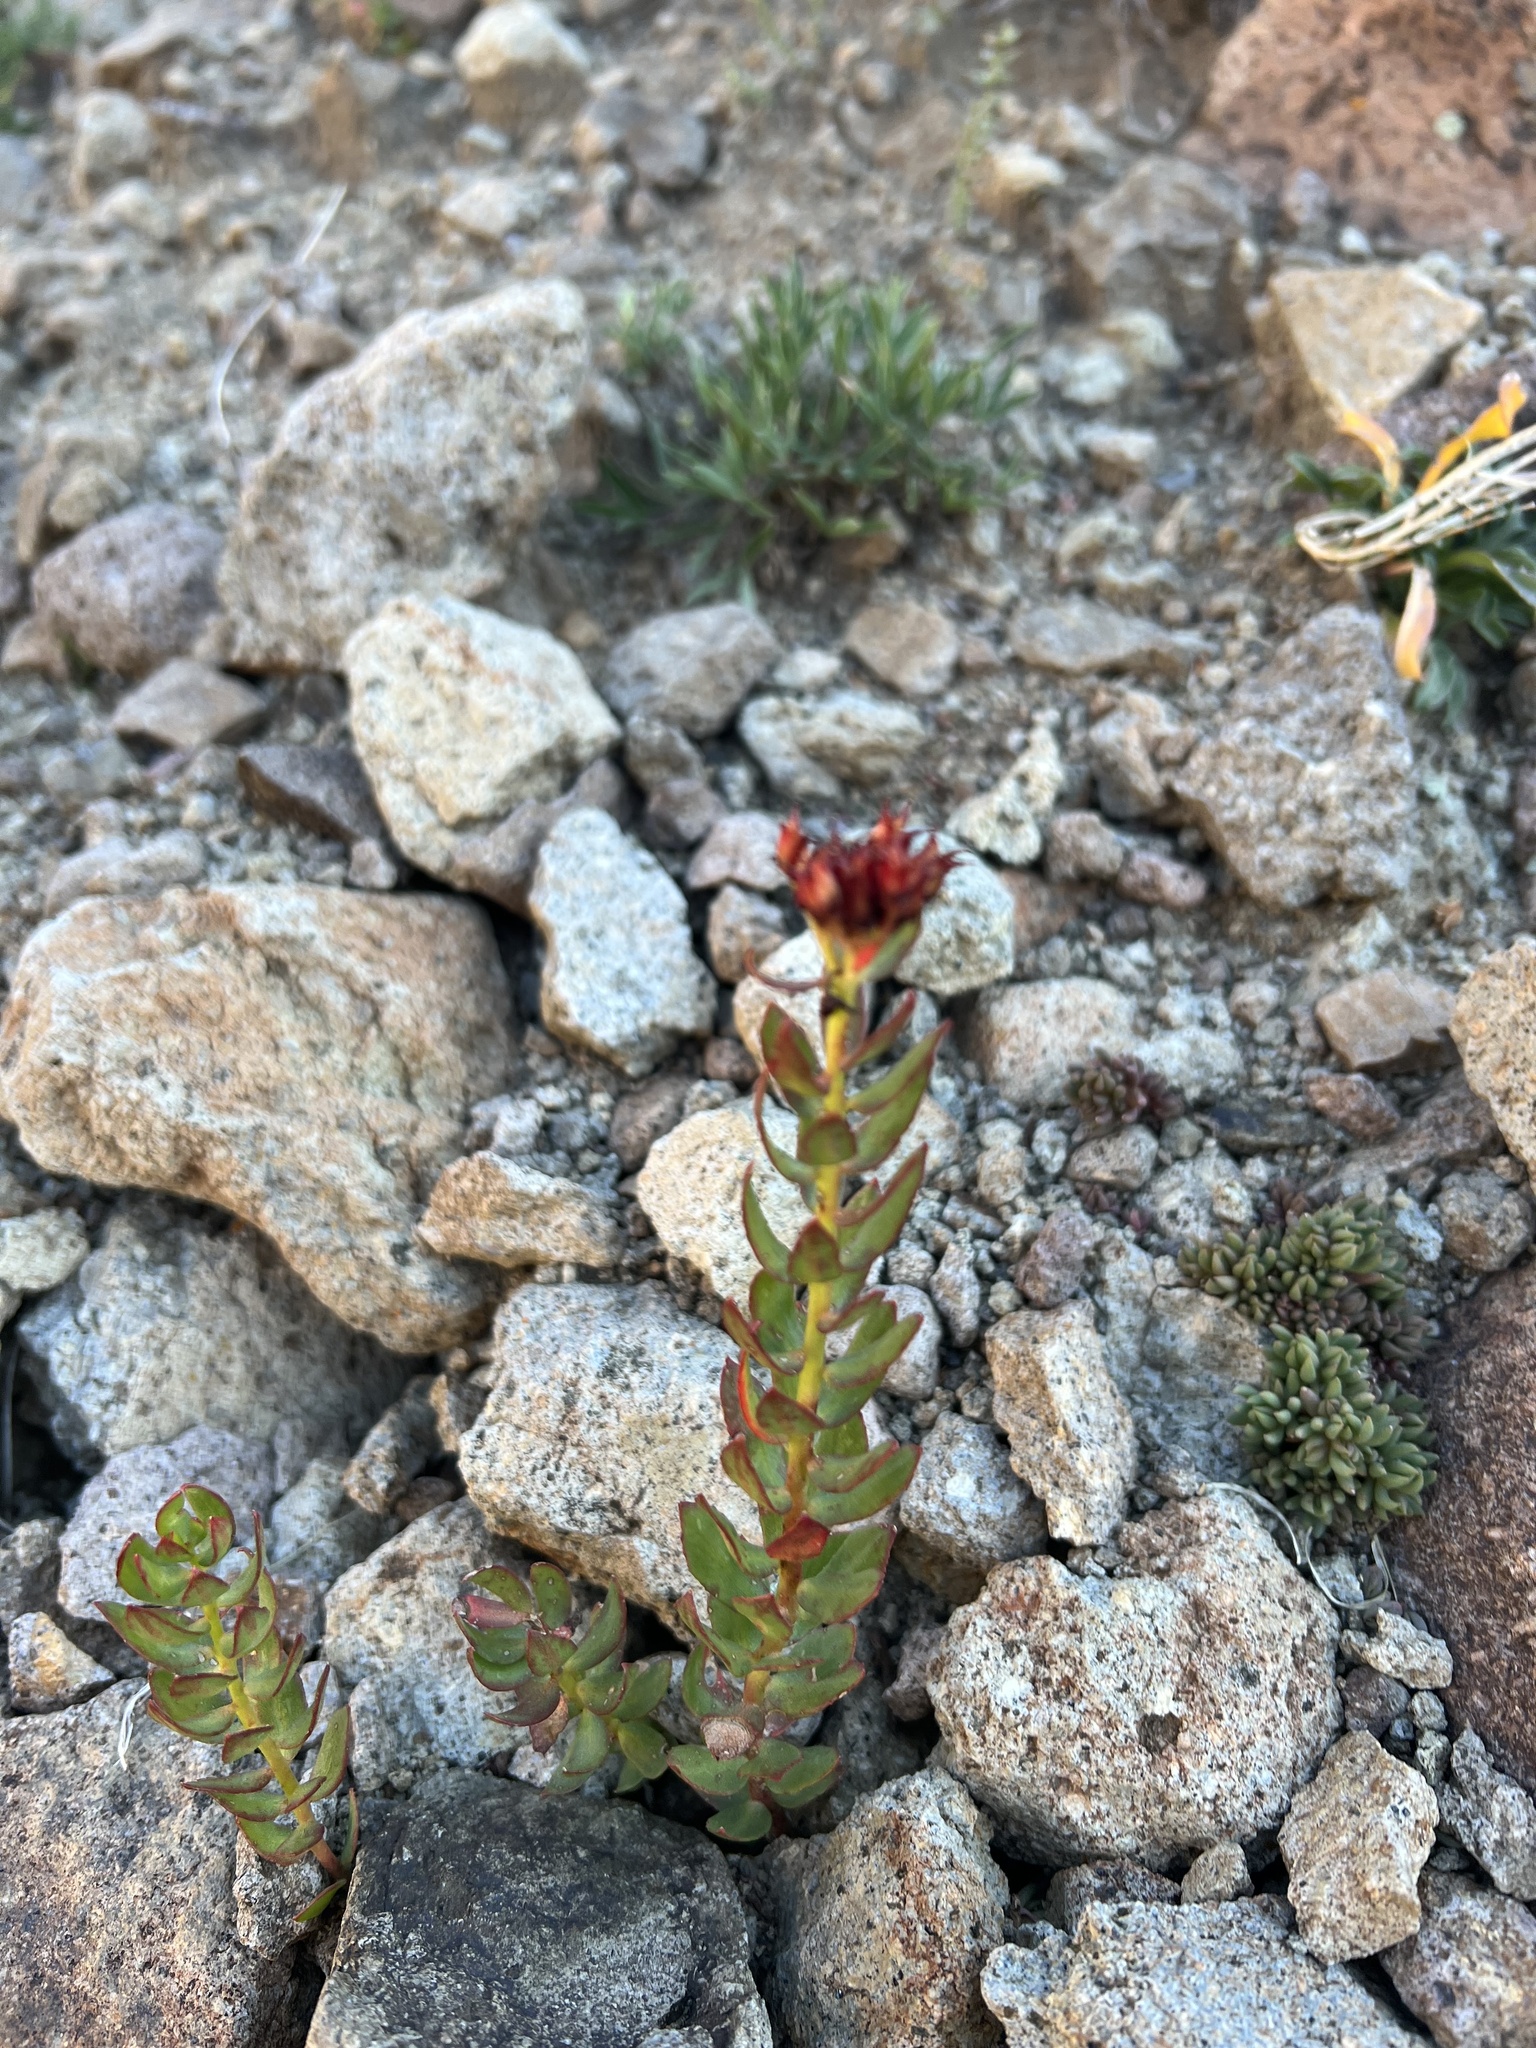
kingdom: Plantae
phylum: Tracheophyta
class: Magnoliopsida
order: Saxifragales
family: Crassulaceae
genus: Rhodiola
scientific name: Rhodiola integrifolia
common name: Western roseroot
